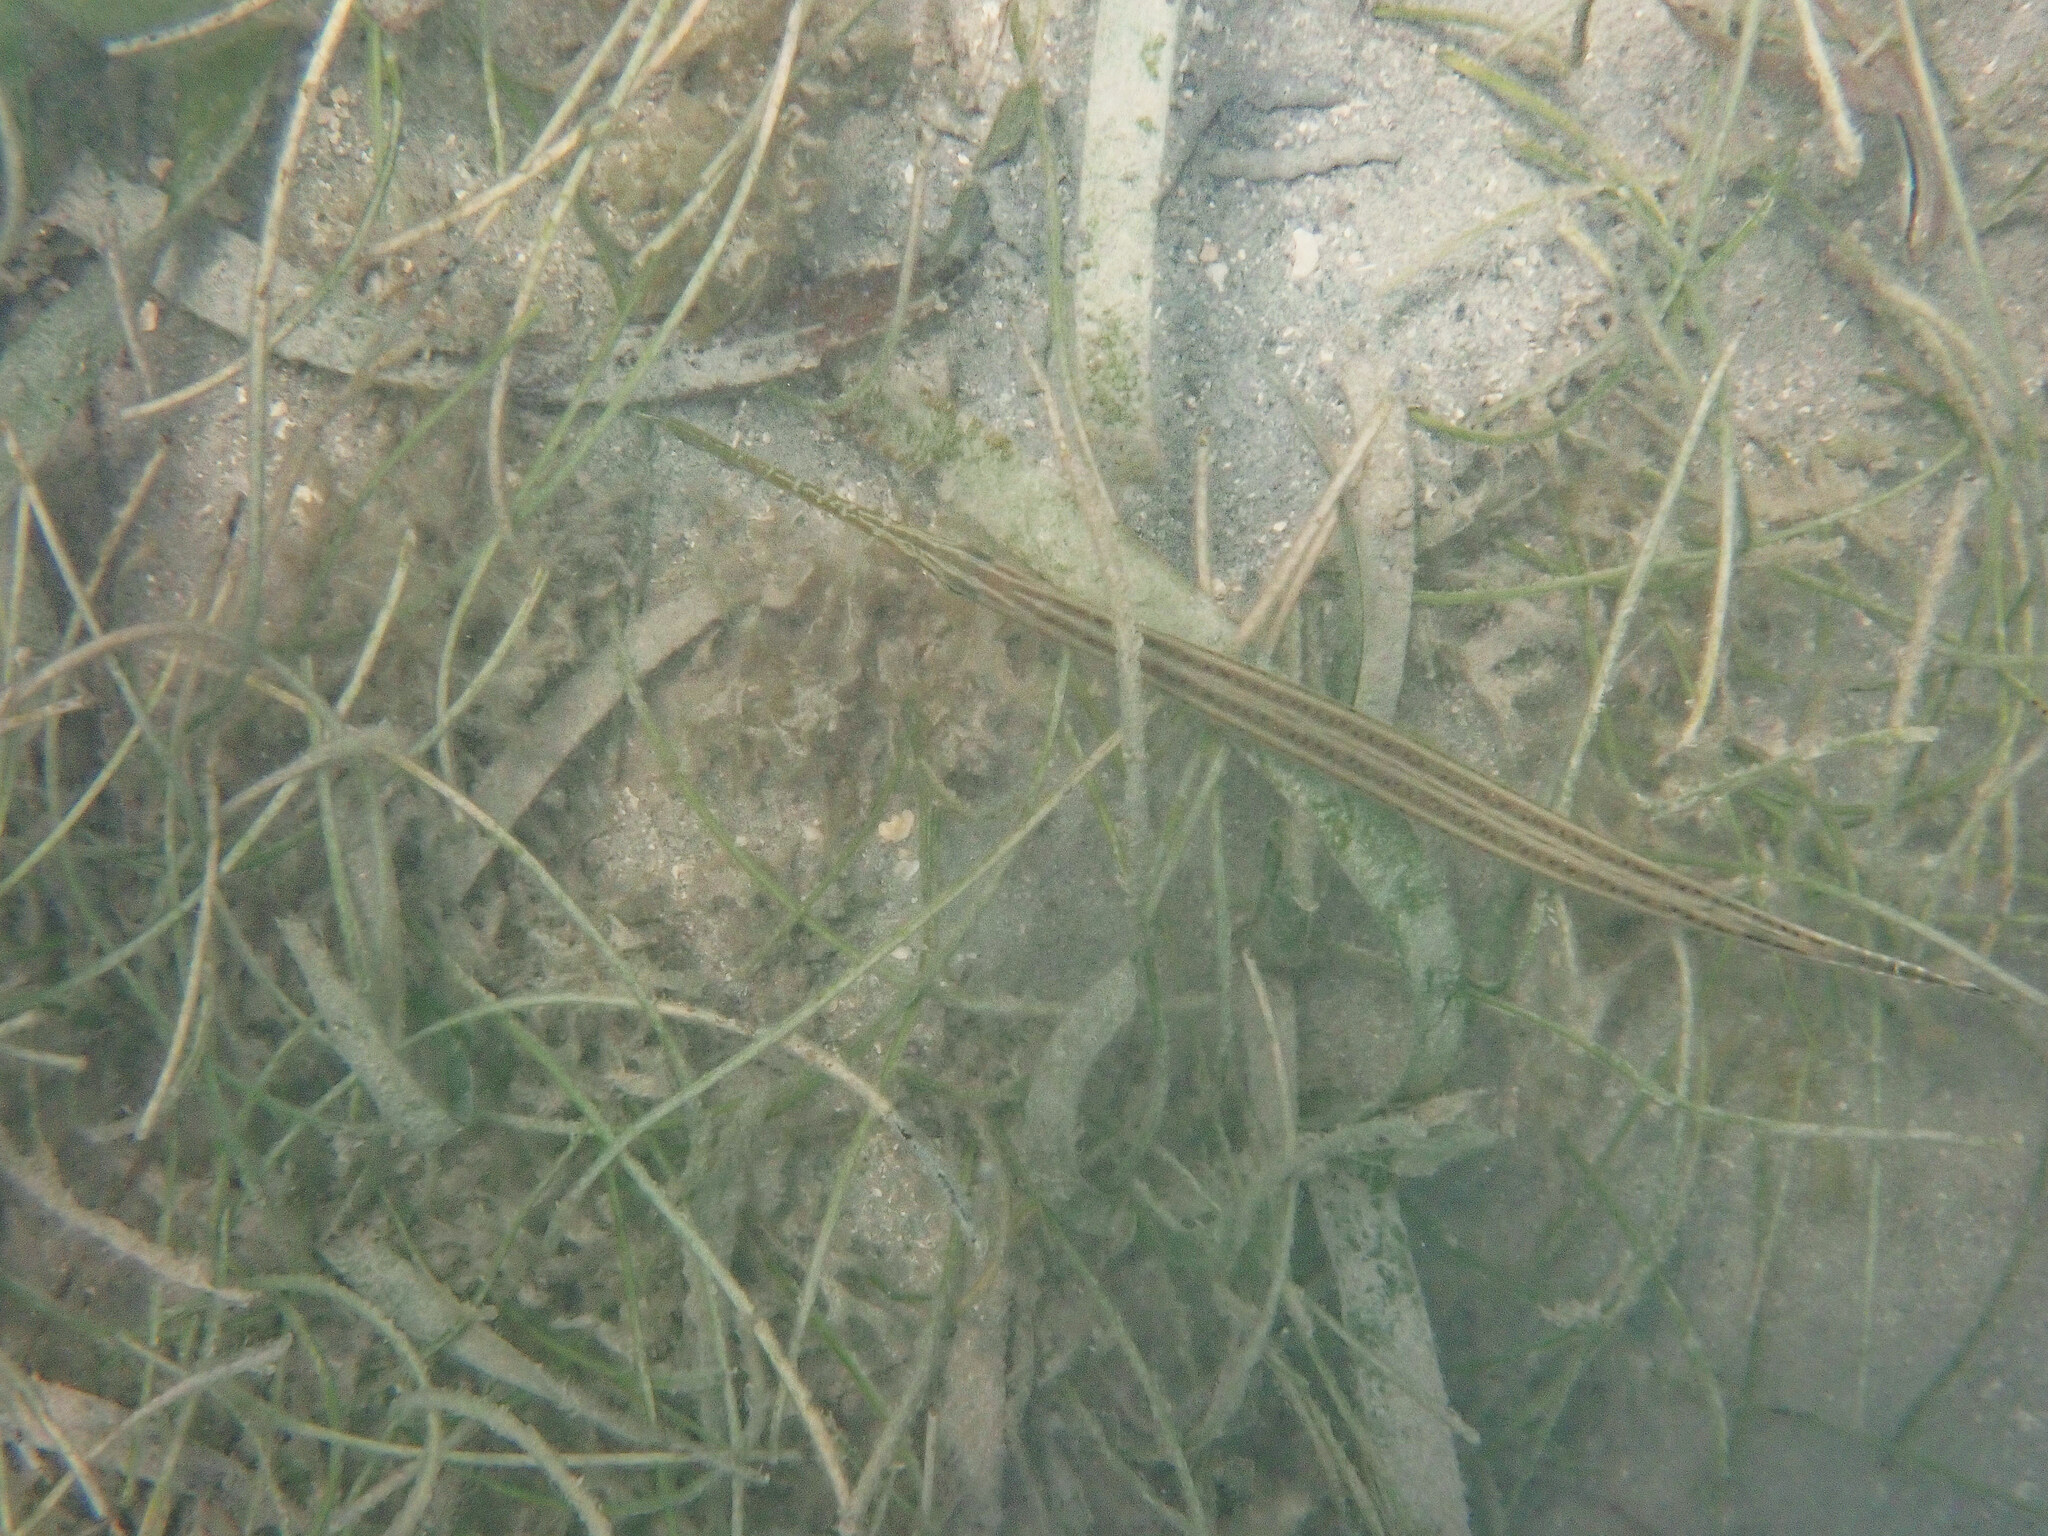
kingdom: Animalia
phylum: Chordata
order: Syngnathiformes
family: Aulostomidae
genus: Aulostomus
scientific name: Aulostomus maculatus
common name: West atlantic trumpetfish
